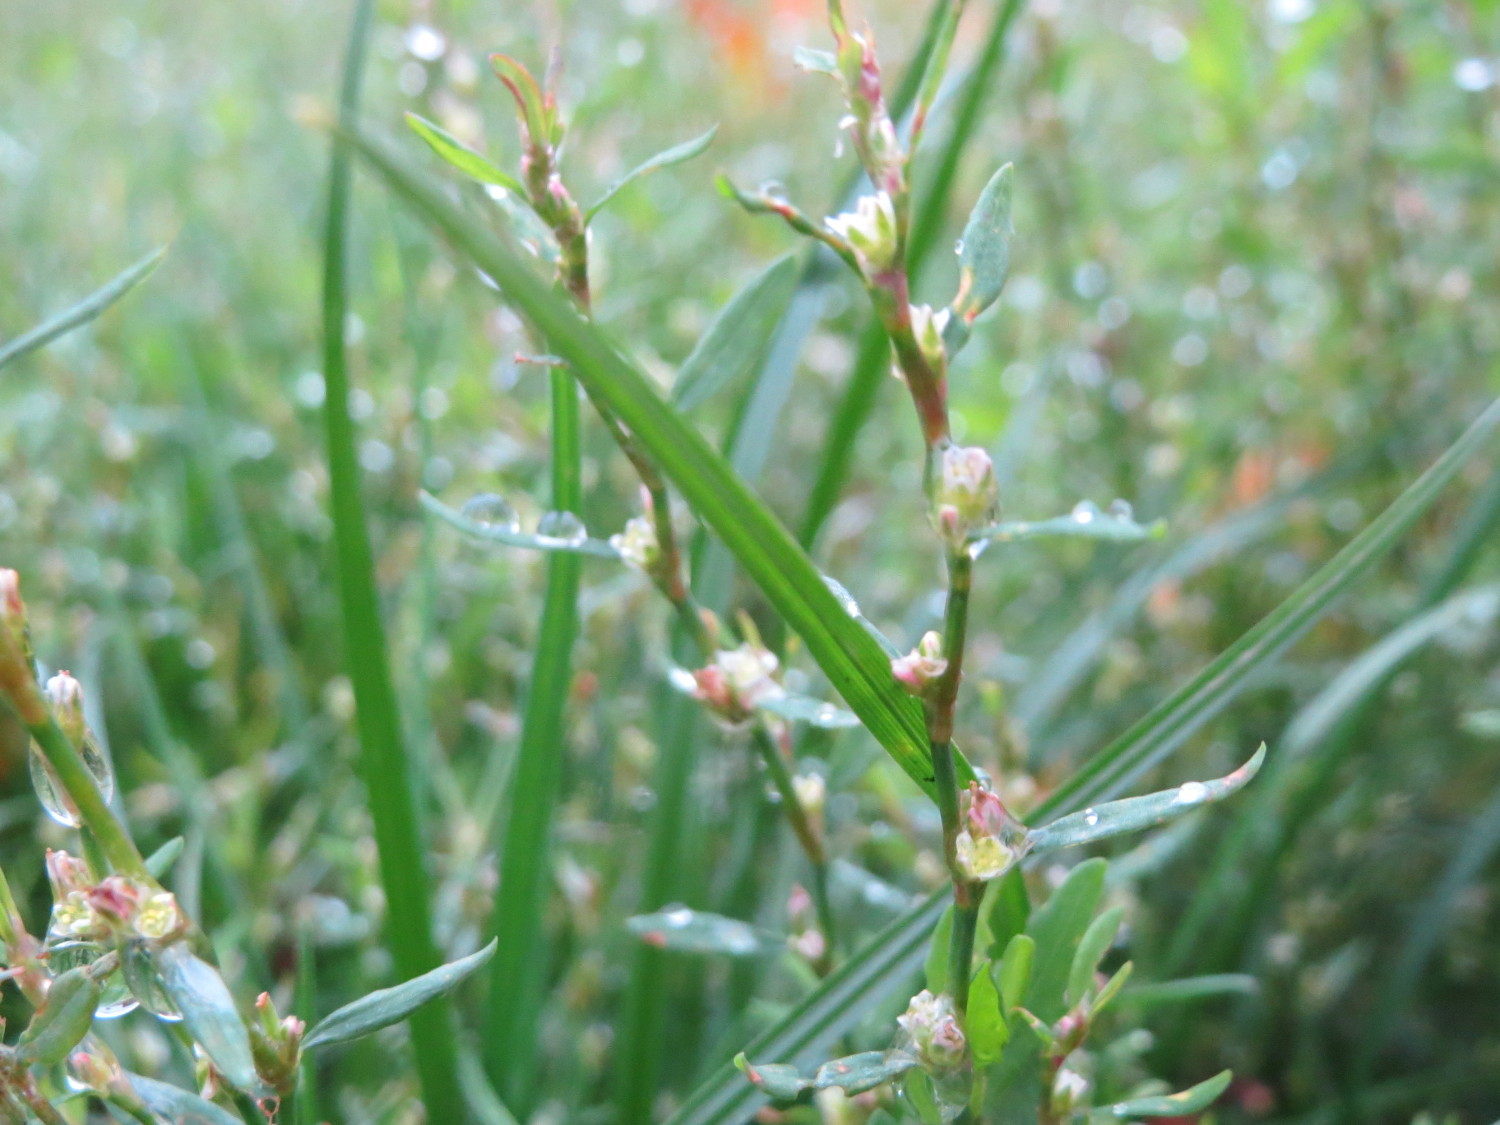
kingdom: Plantae
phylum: Tracheophyta
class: Magnoliopsida
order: Caryophyllales
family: Polygonaceae
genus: Polygonum
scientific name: Polygonum aviculare
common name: Prostrate knotweed
